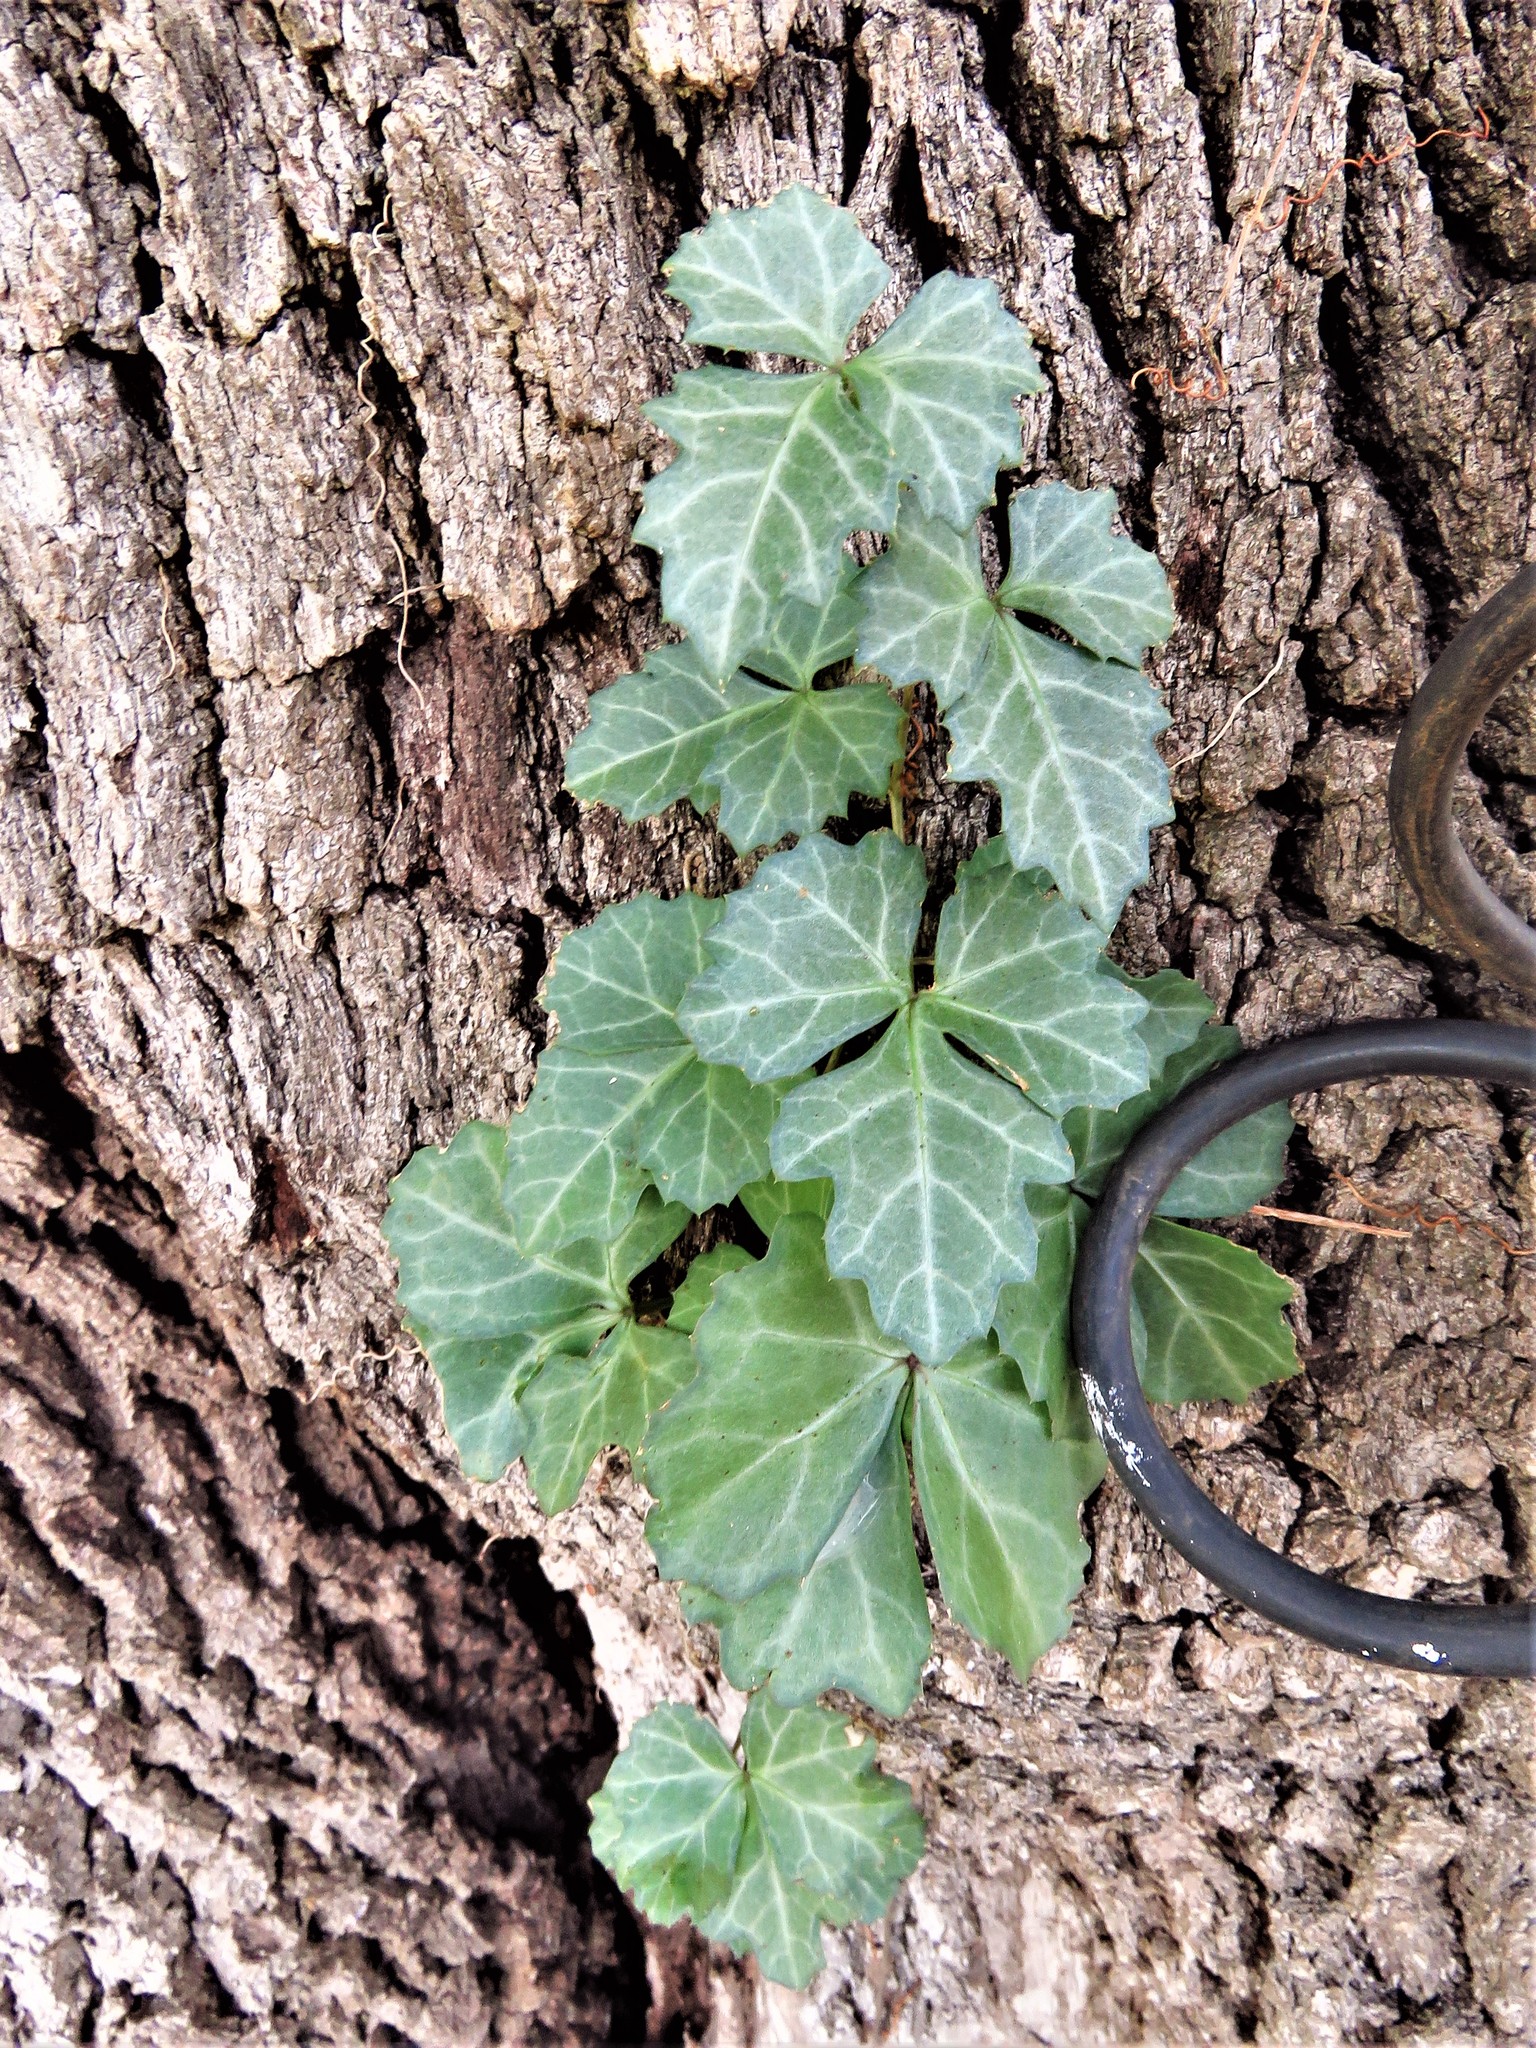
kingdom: Plantae
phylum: Tracheophyta
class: Magnoliopsida
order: Vitales
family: Vitaceae
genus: Cissus
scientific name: Cissus trifoliata
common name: Vine-sorrel
